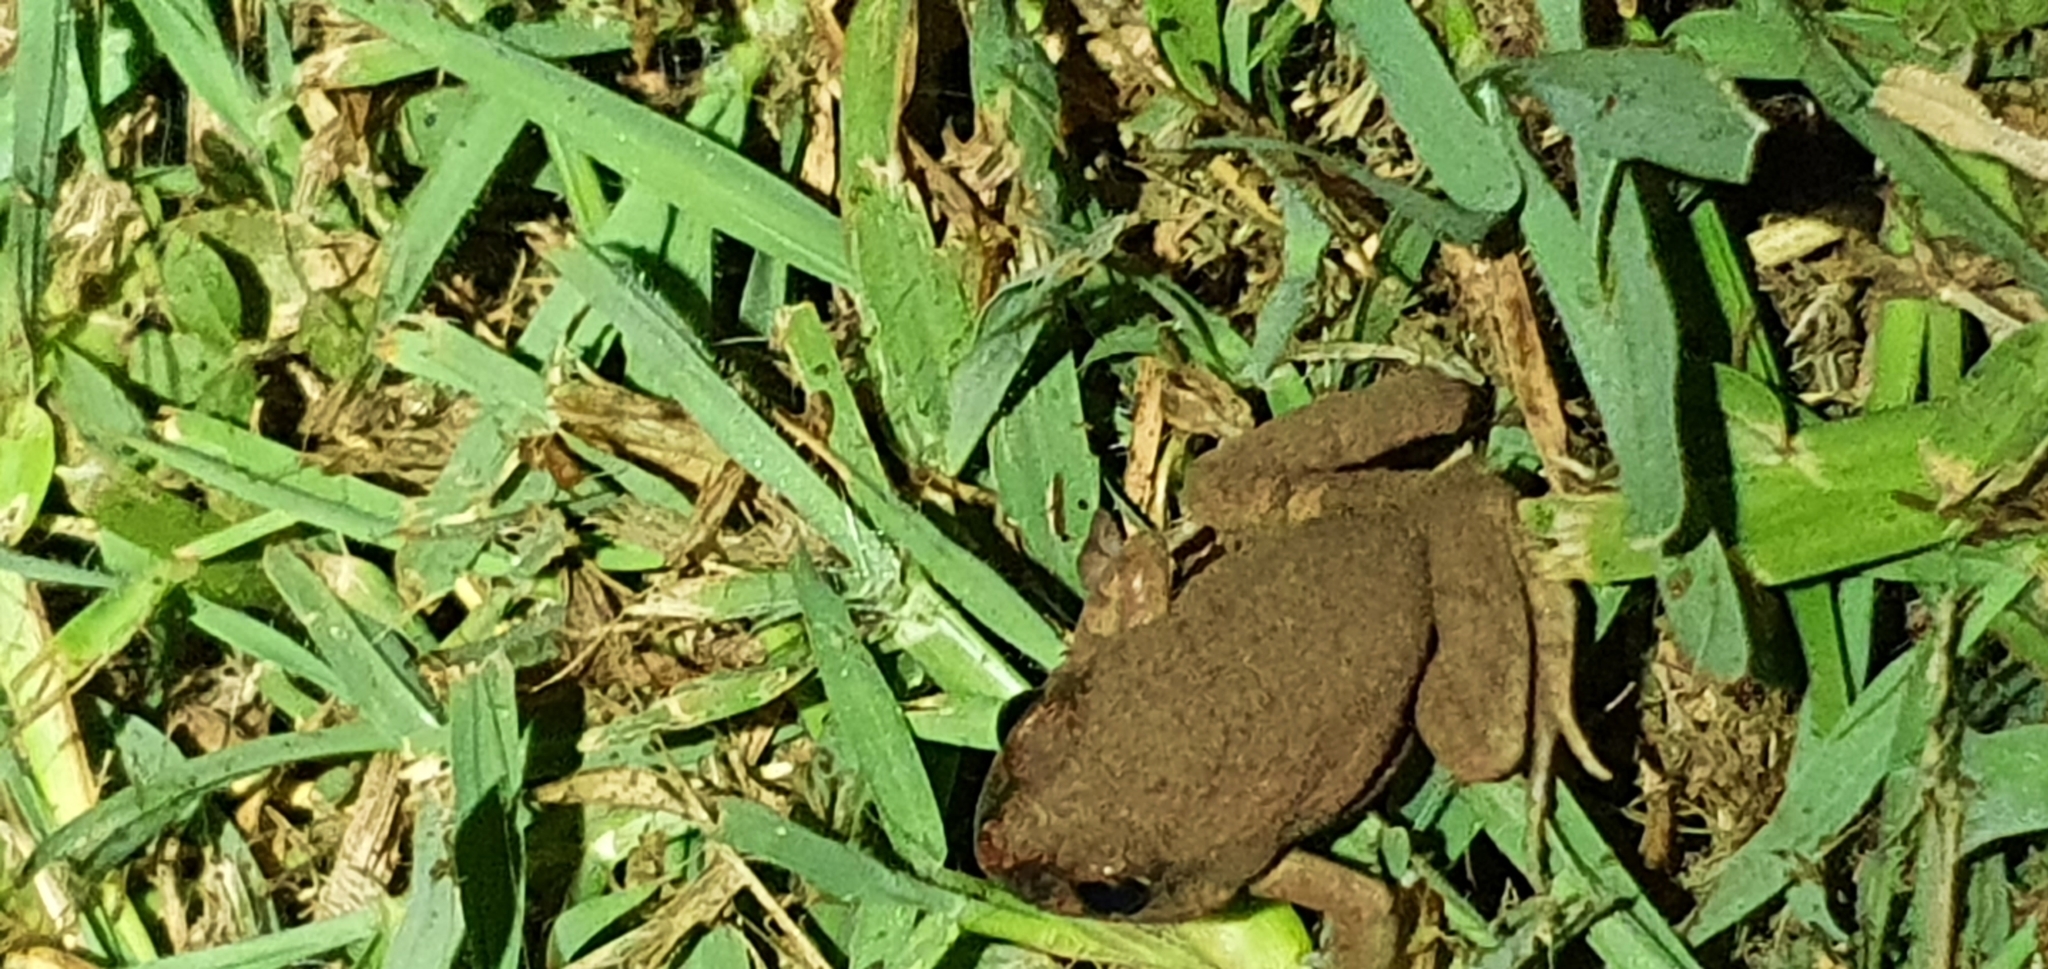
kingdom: Animalia
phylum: Chordata
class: Amphibia
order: Anura
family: Limnodynastidae
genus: Platyplectrum
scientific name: Platyplectrum ornatum
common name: Ornate burrowing frog
